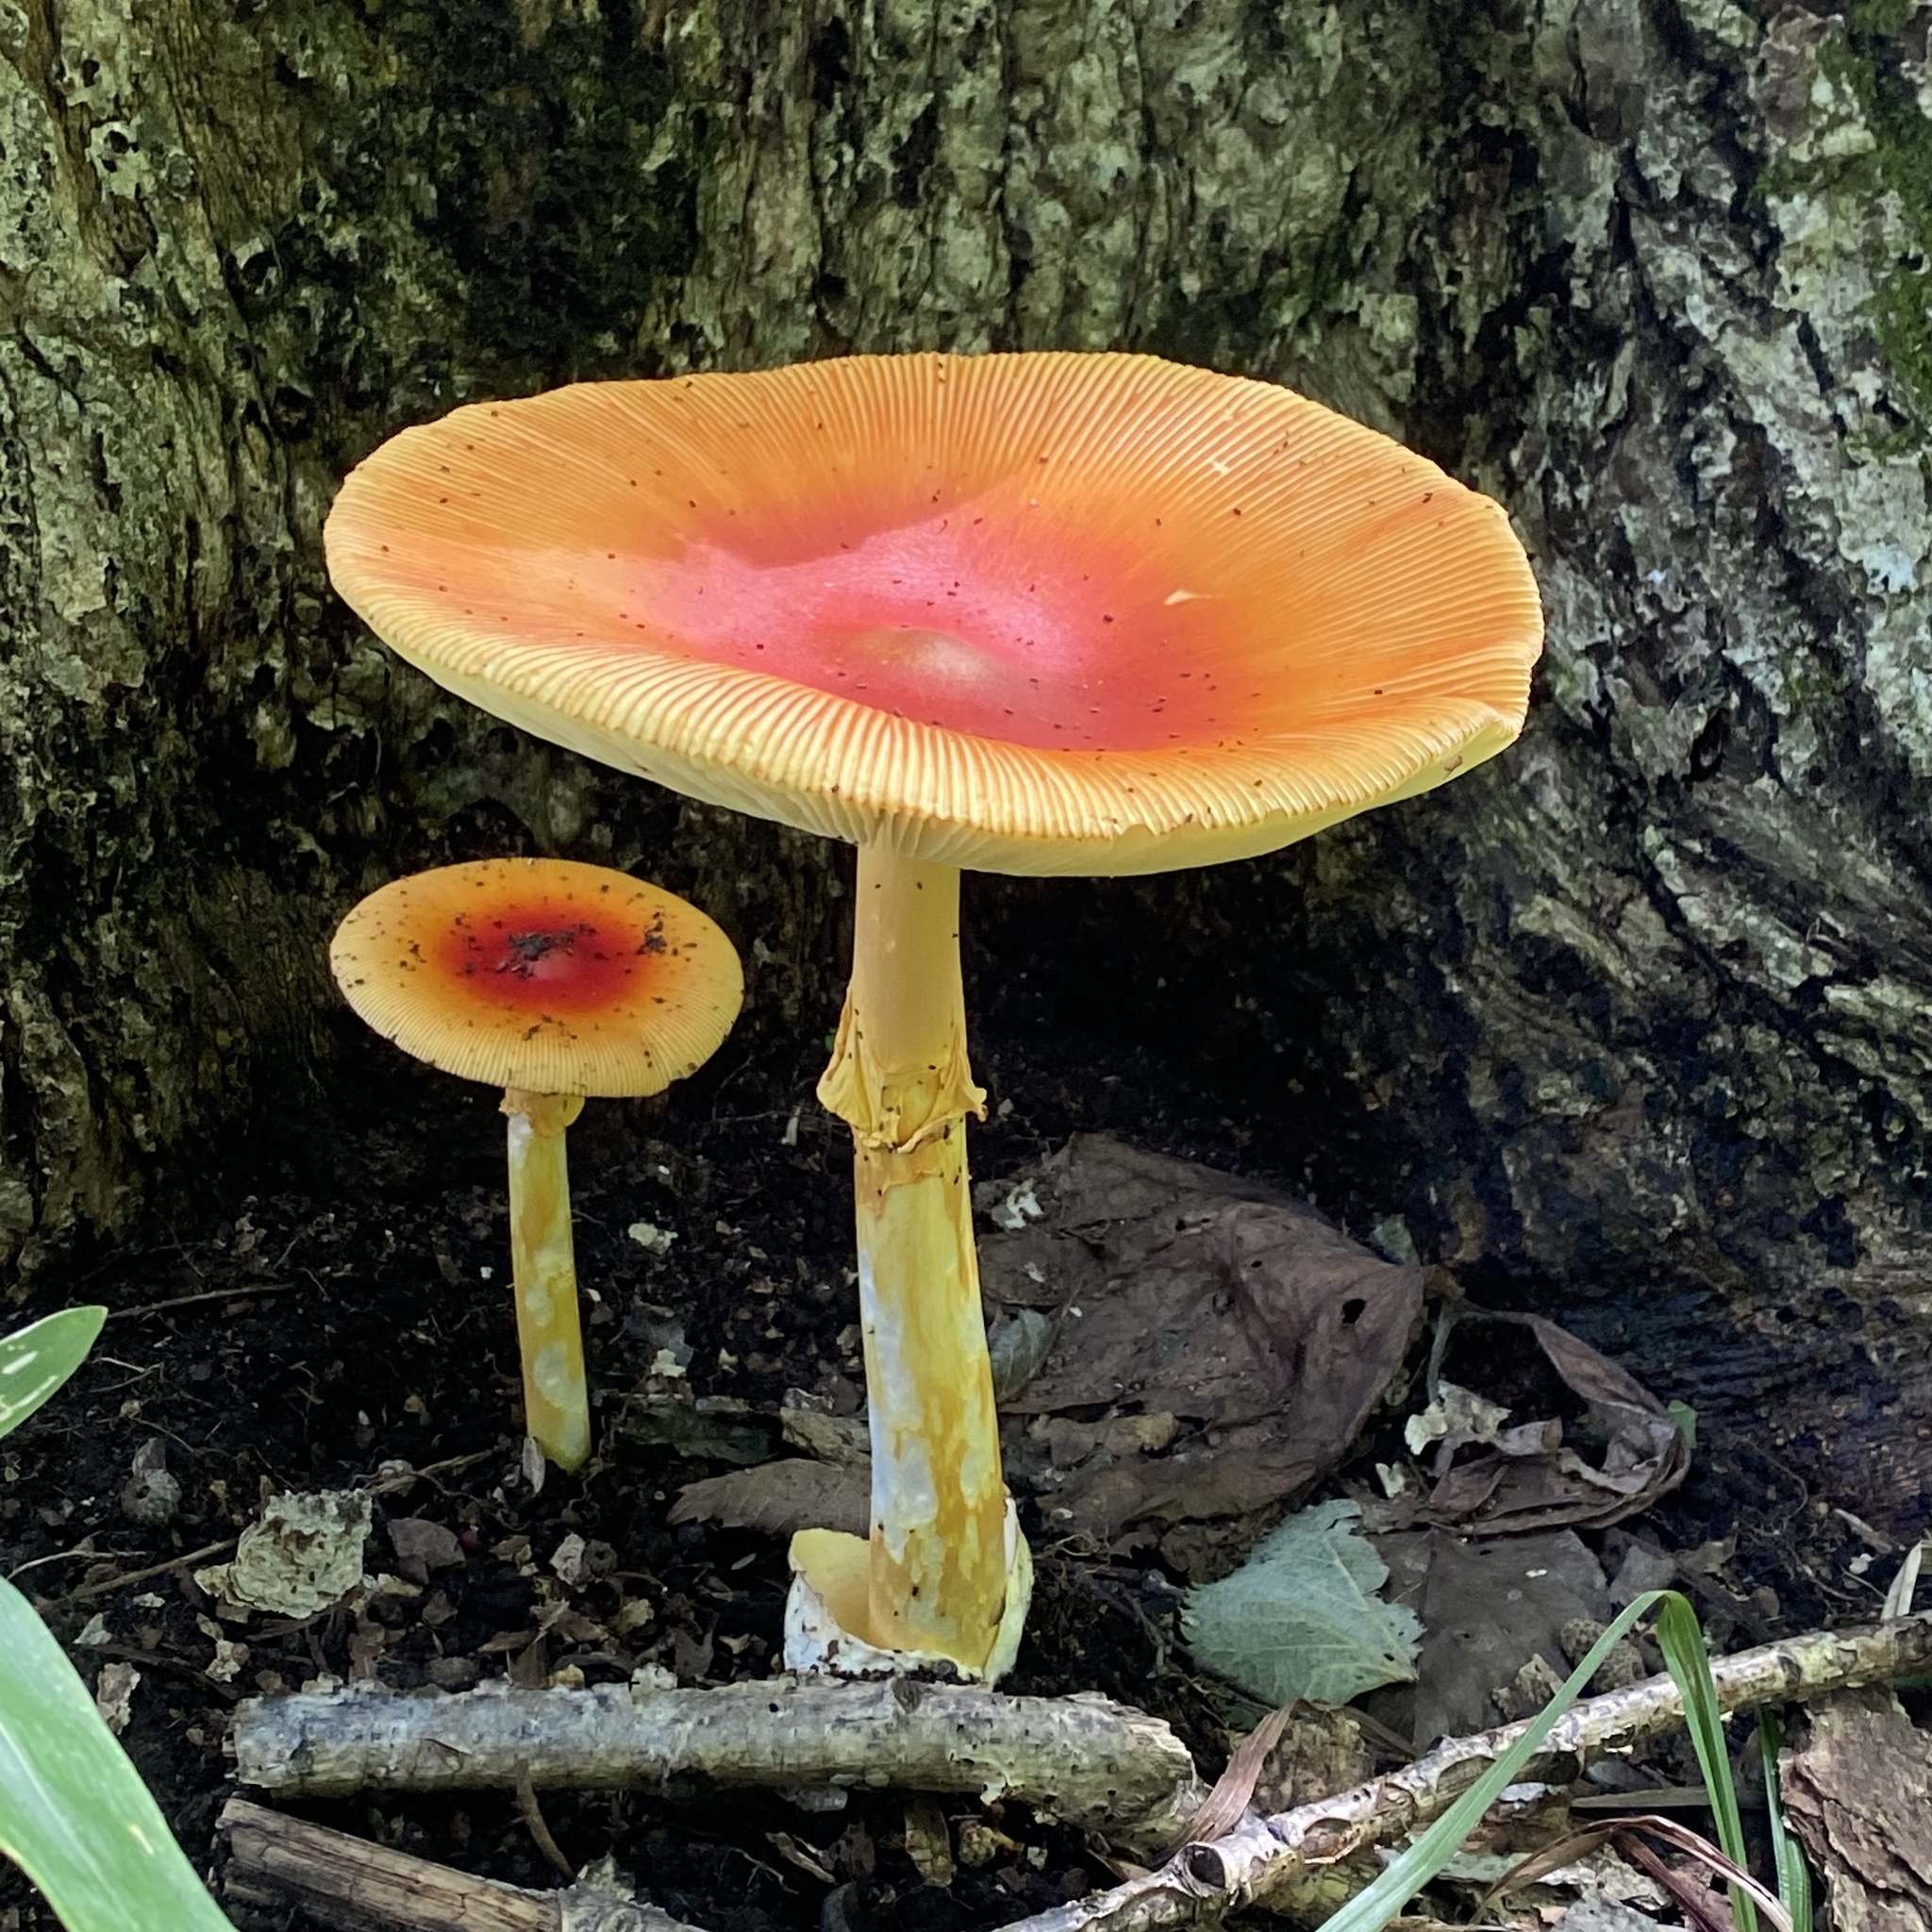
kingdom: Fungi
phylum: Basidiomycota
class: Agaricomycetes
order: Agaricales
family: Amanitaceae
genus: Amanita
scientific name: Amanita caesareoides
